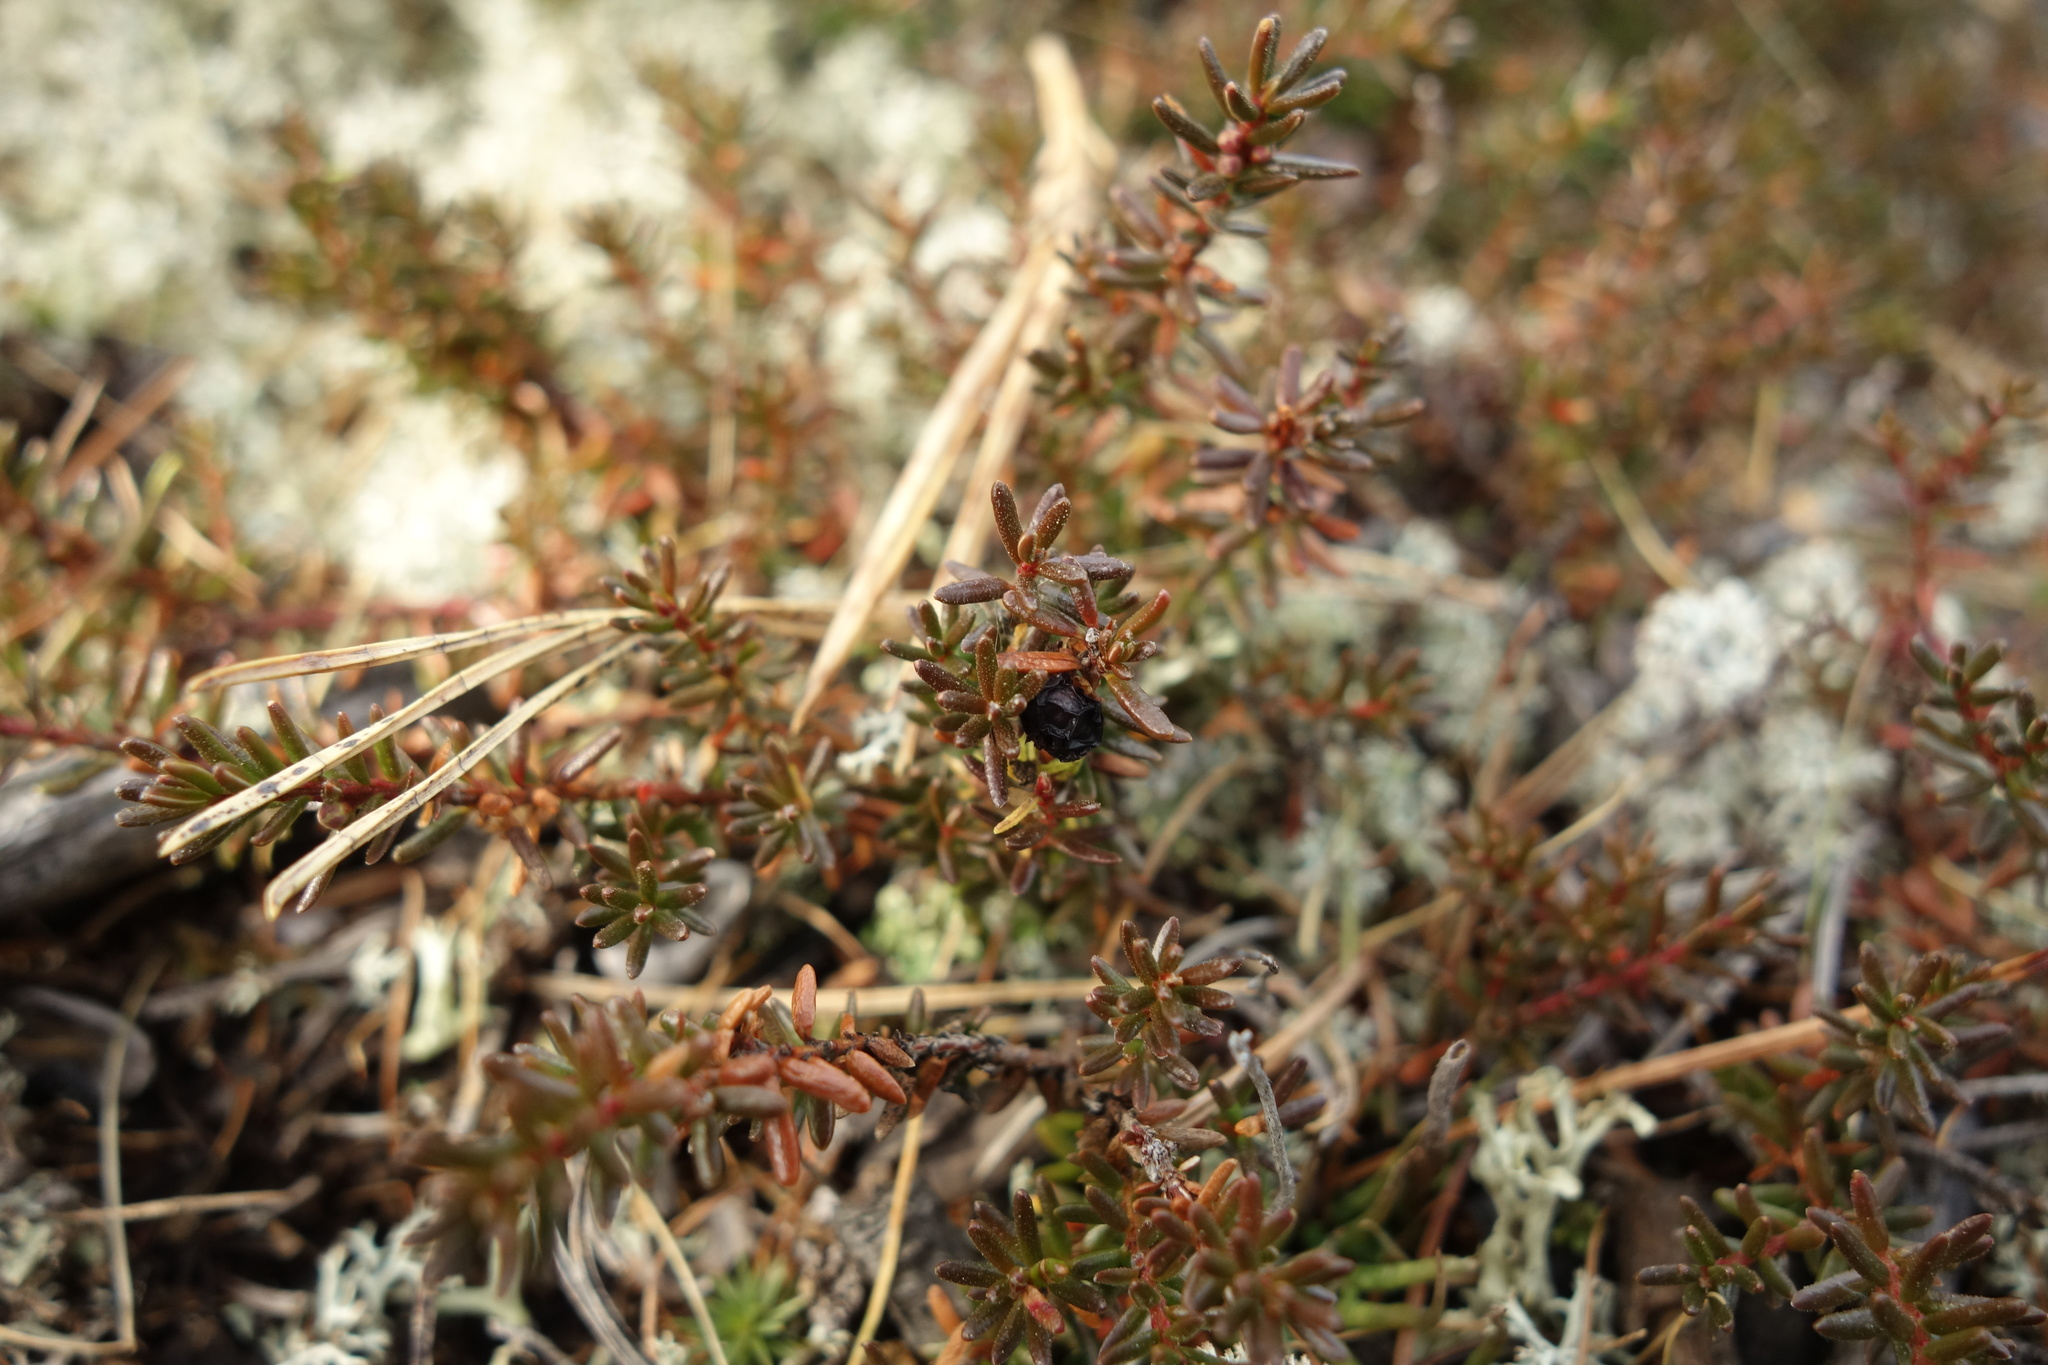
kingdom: Plantae
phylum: Tracheophyta
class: Magnoliopsida
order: Ericales
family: Ericaceae
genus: Empetrum
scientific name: Empetrum nigrum
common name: Black crowberry
